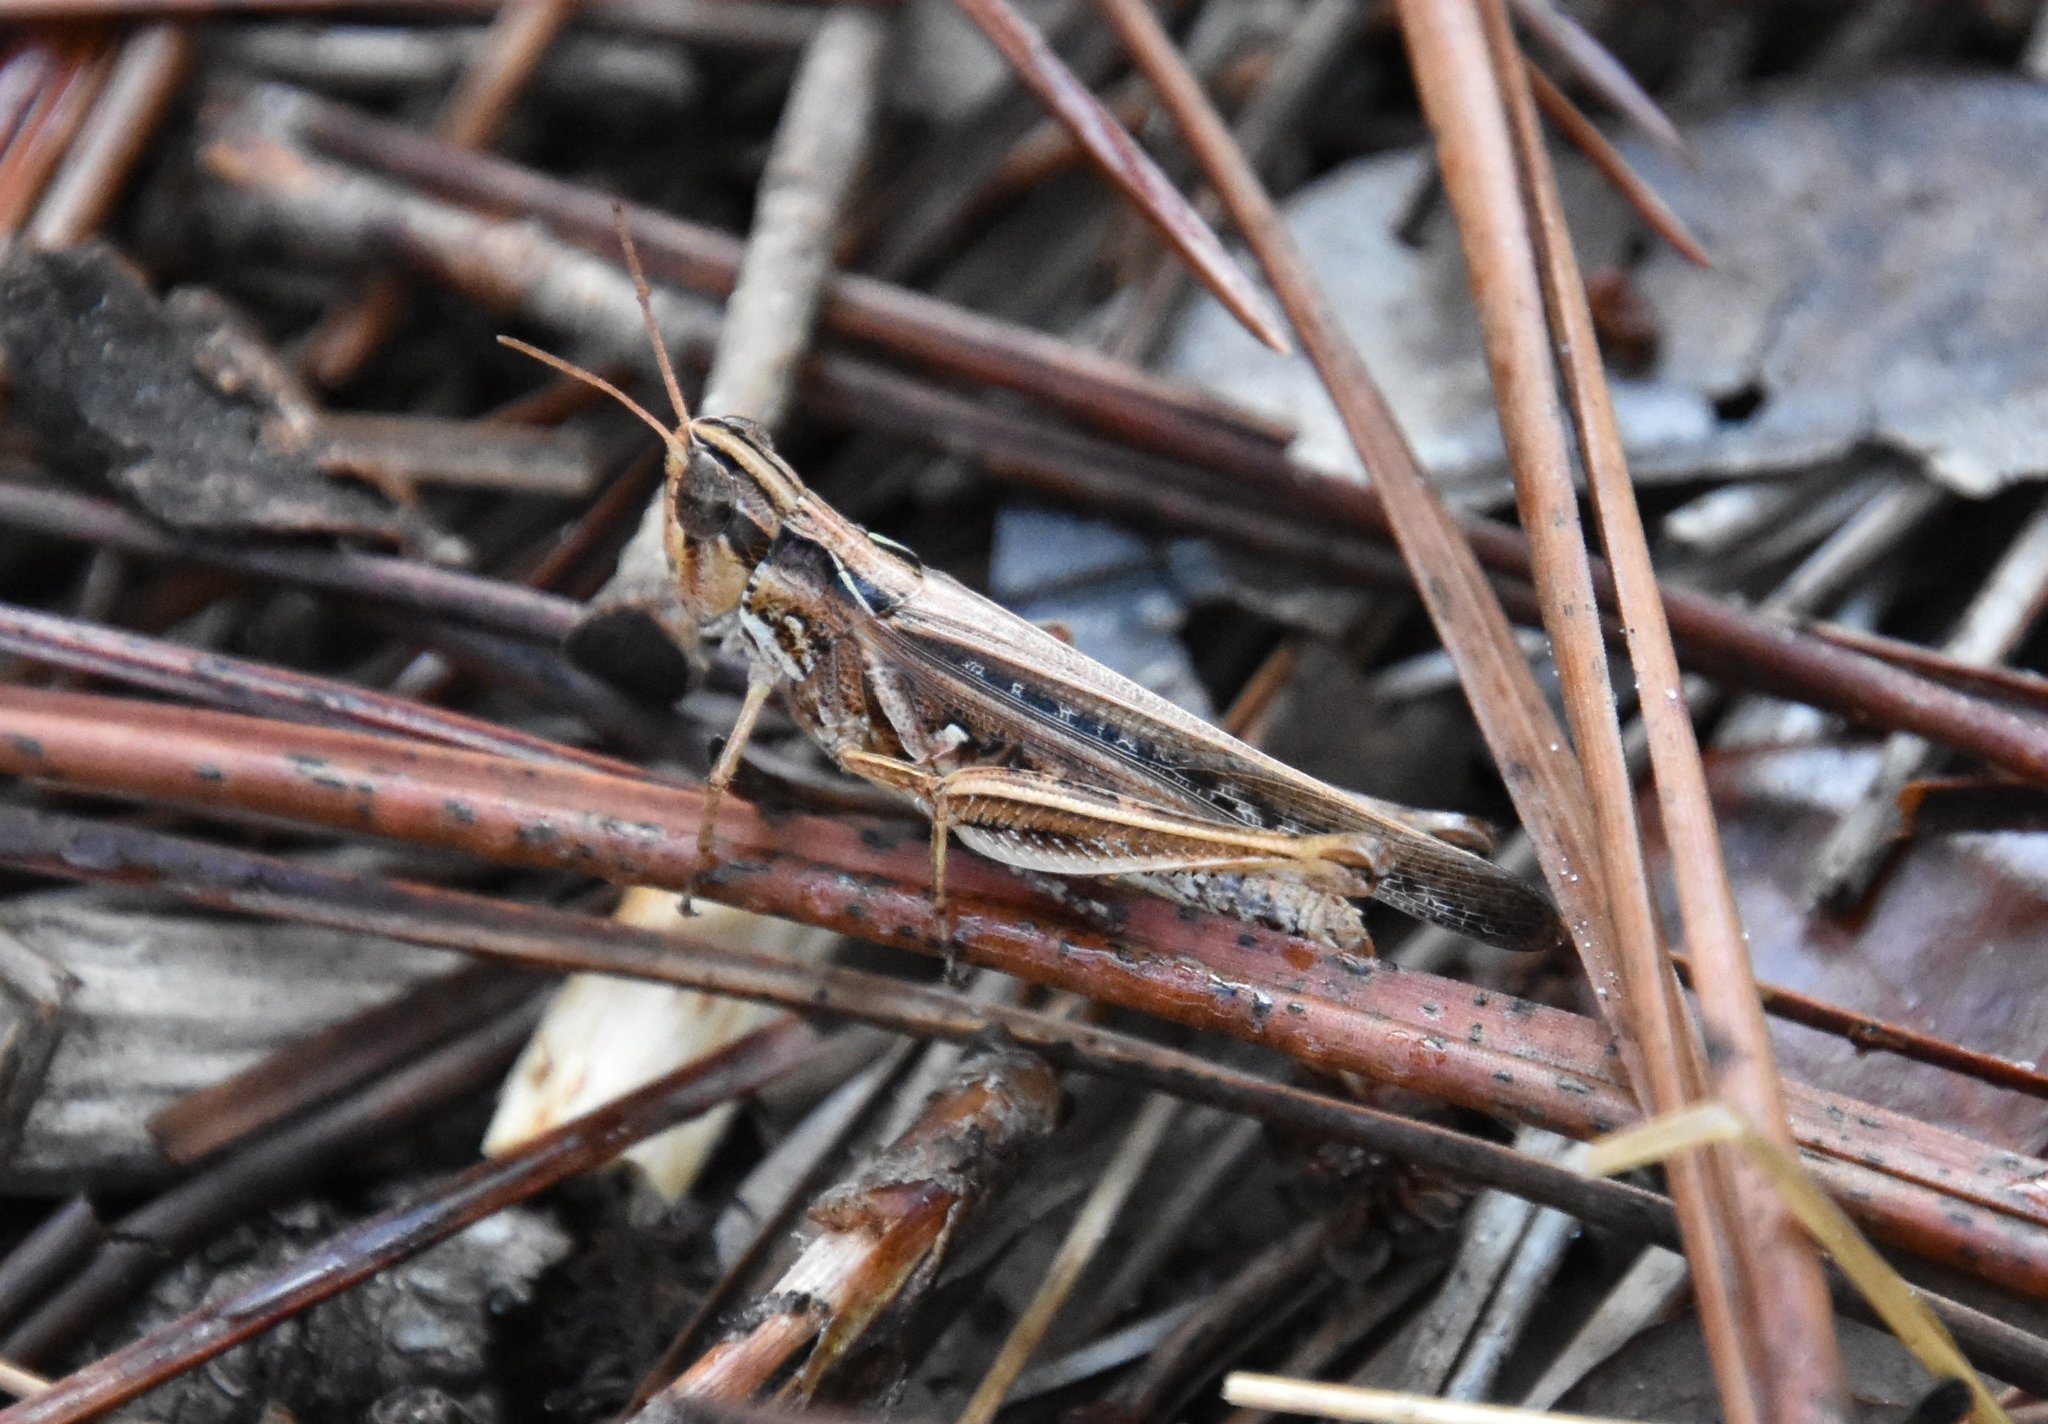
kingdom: Animalia
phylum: Arthropoda
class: Insecta
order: Orthoptera
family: Acrididae
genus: Orphulella
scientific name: Orphulella pelidna
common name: Spotted-wing grasshopper
